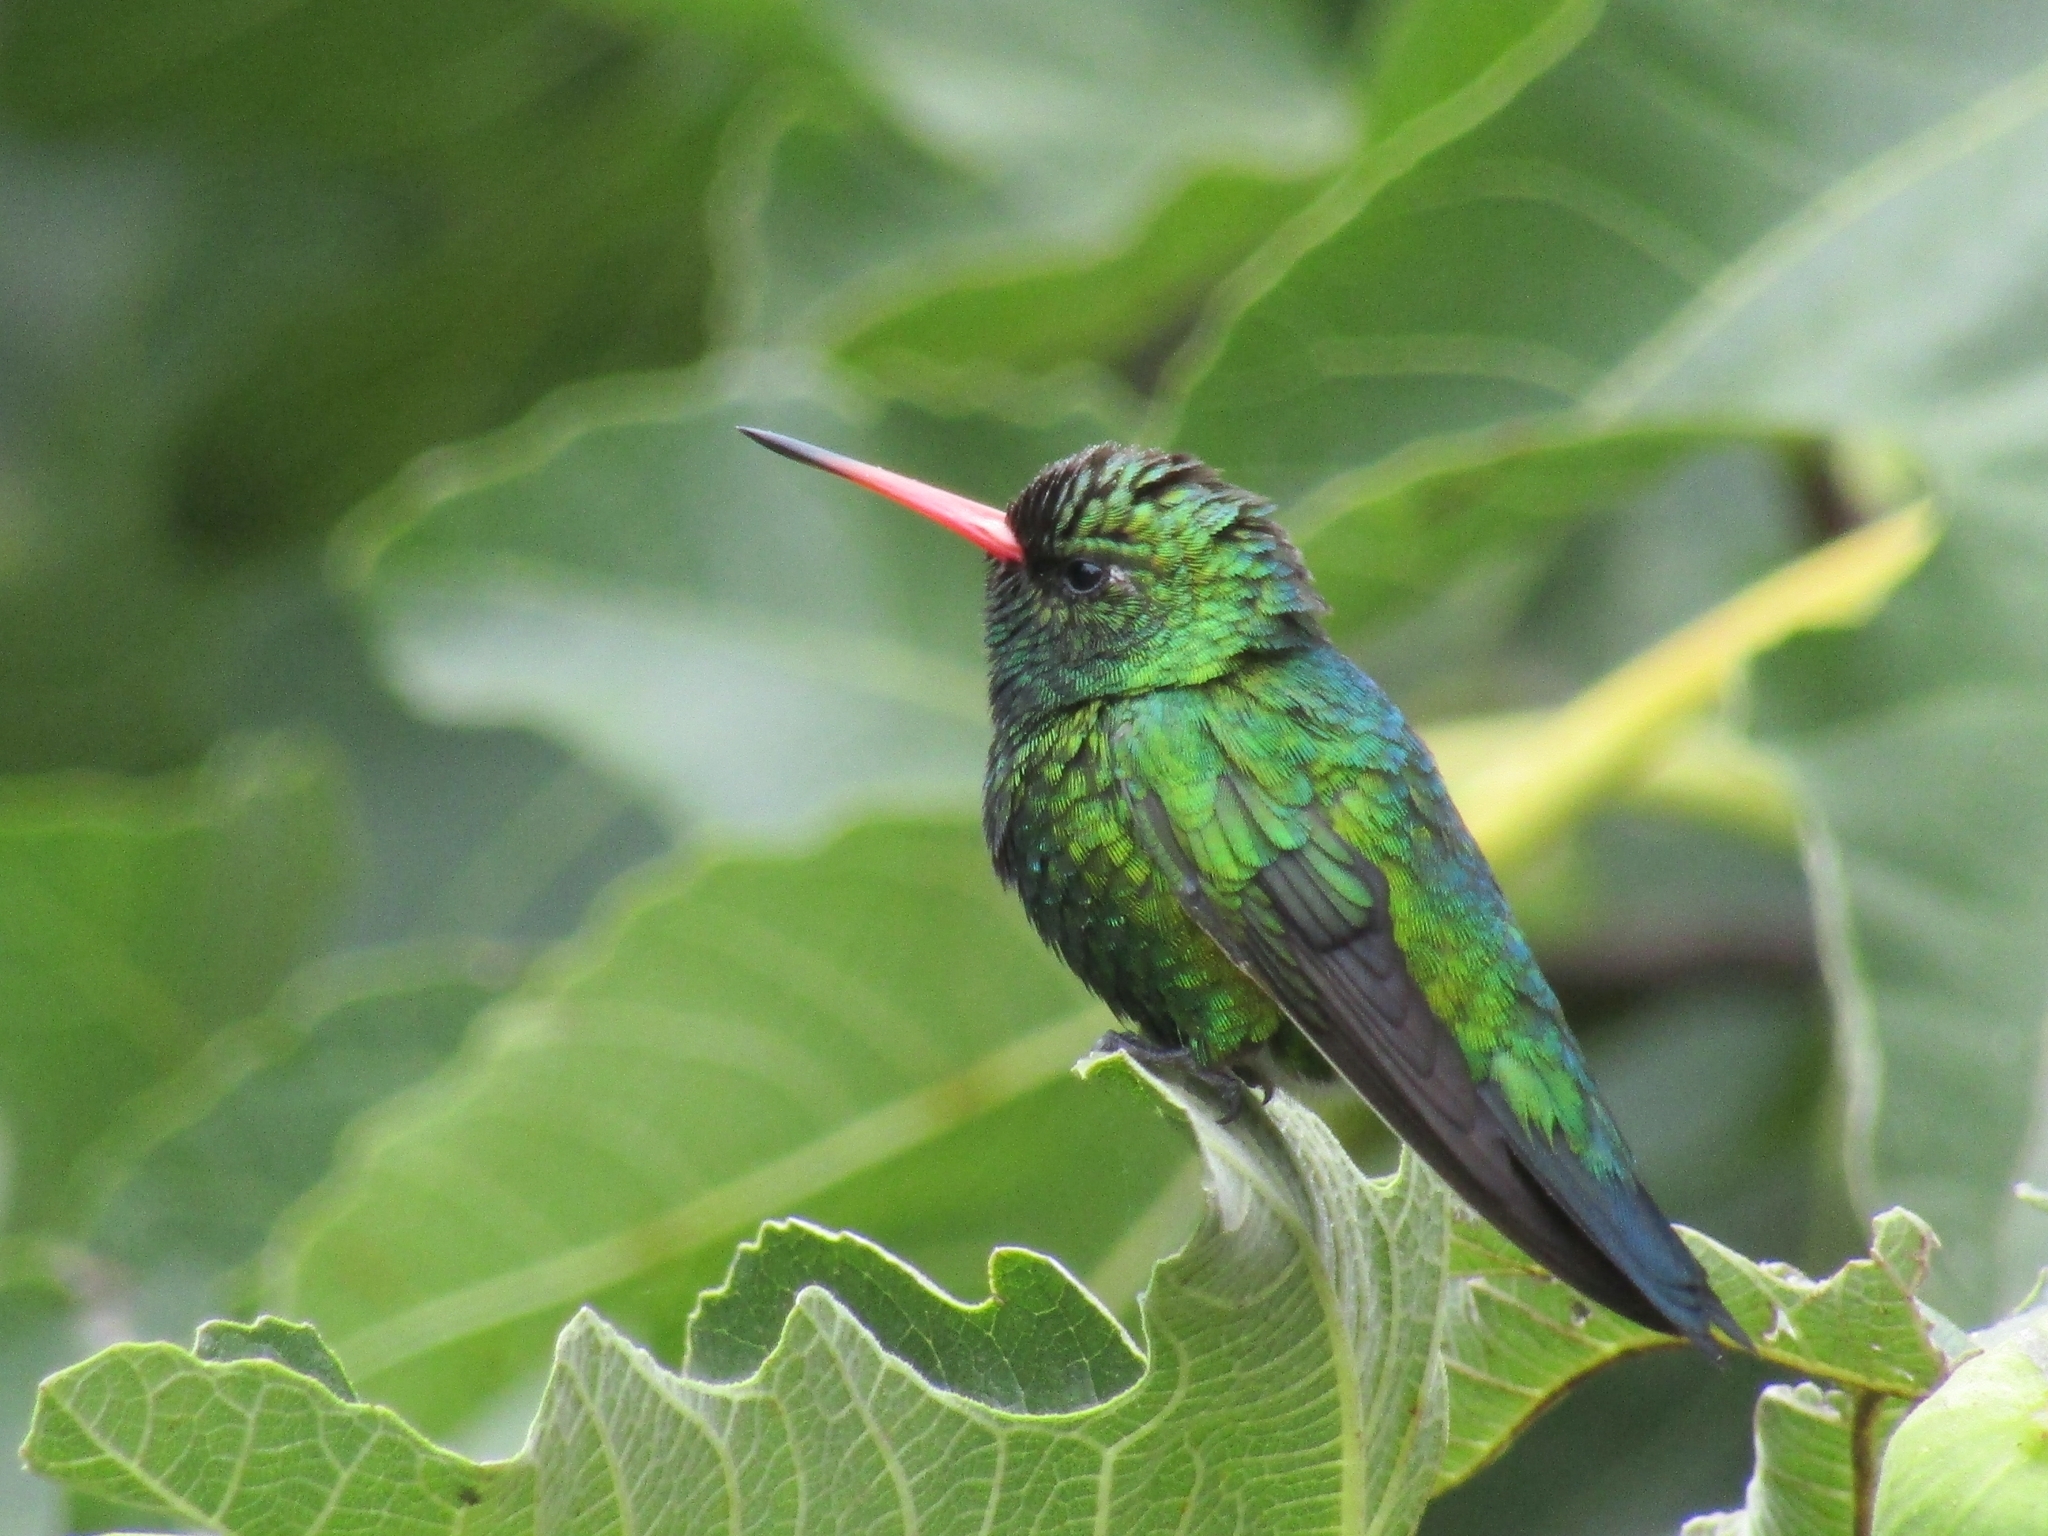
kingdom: Animalia
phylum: Chordata
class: Aves
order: Apodiformes
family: Trochilidae
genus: Chlorostilbon
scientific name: Chlorostilbon lucidus
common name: Glittering-bellied emerald
